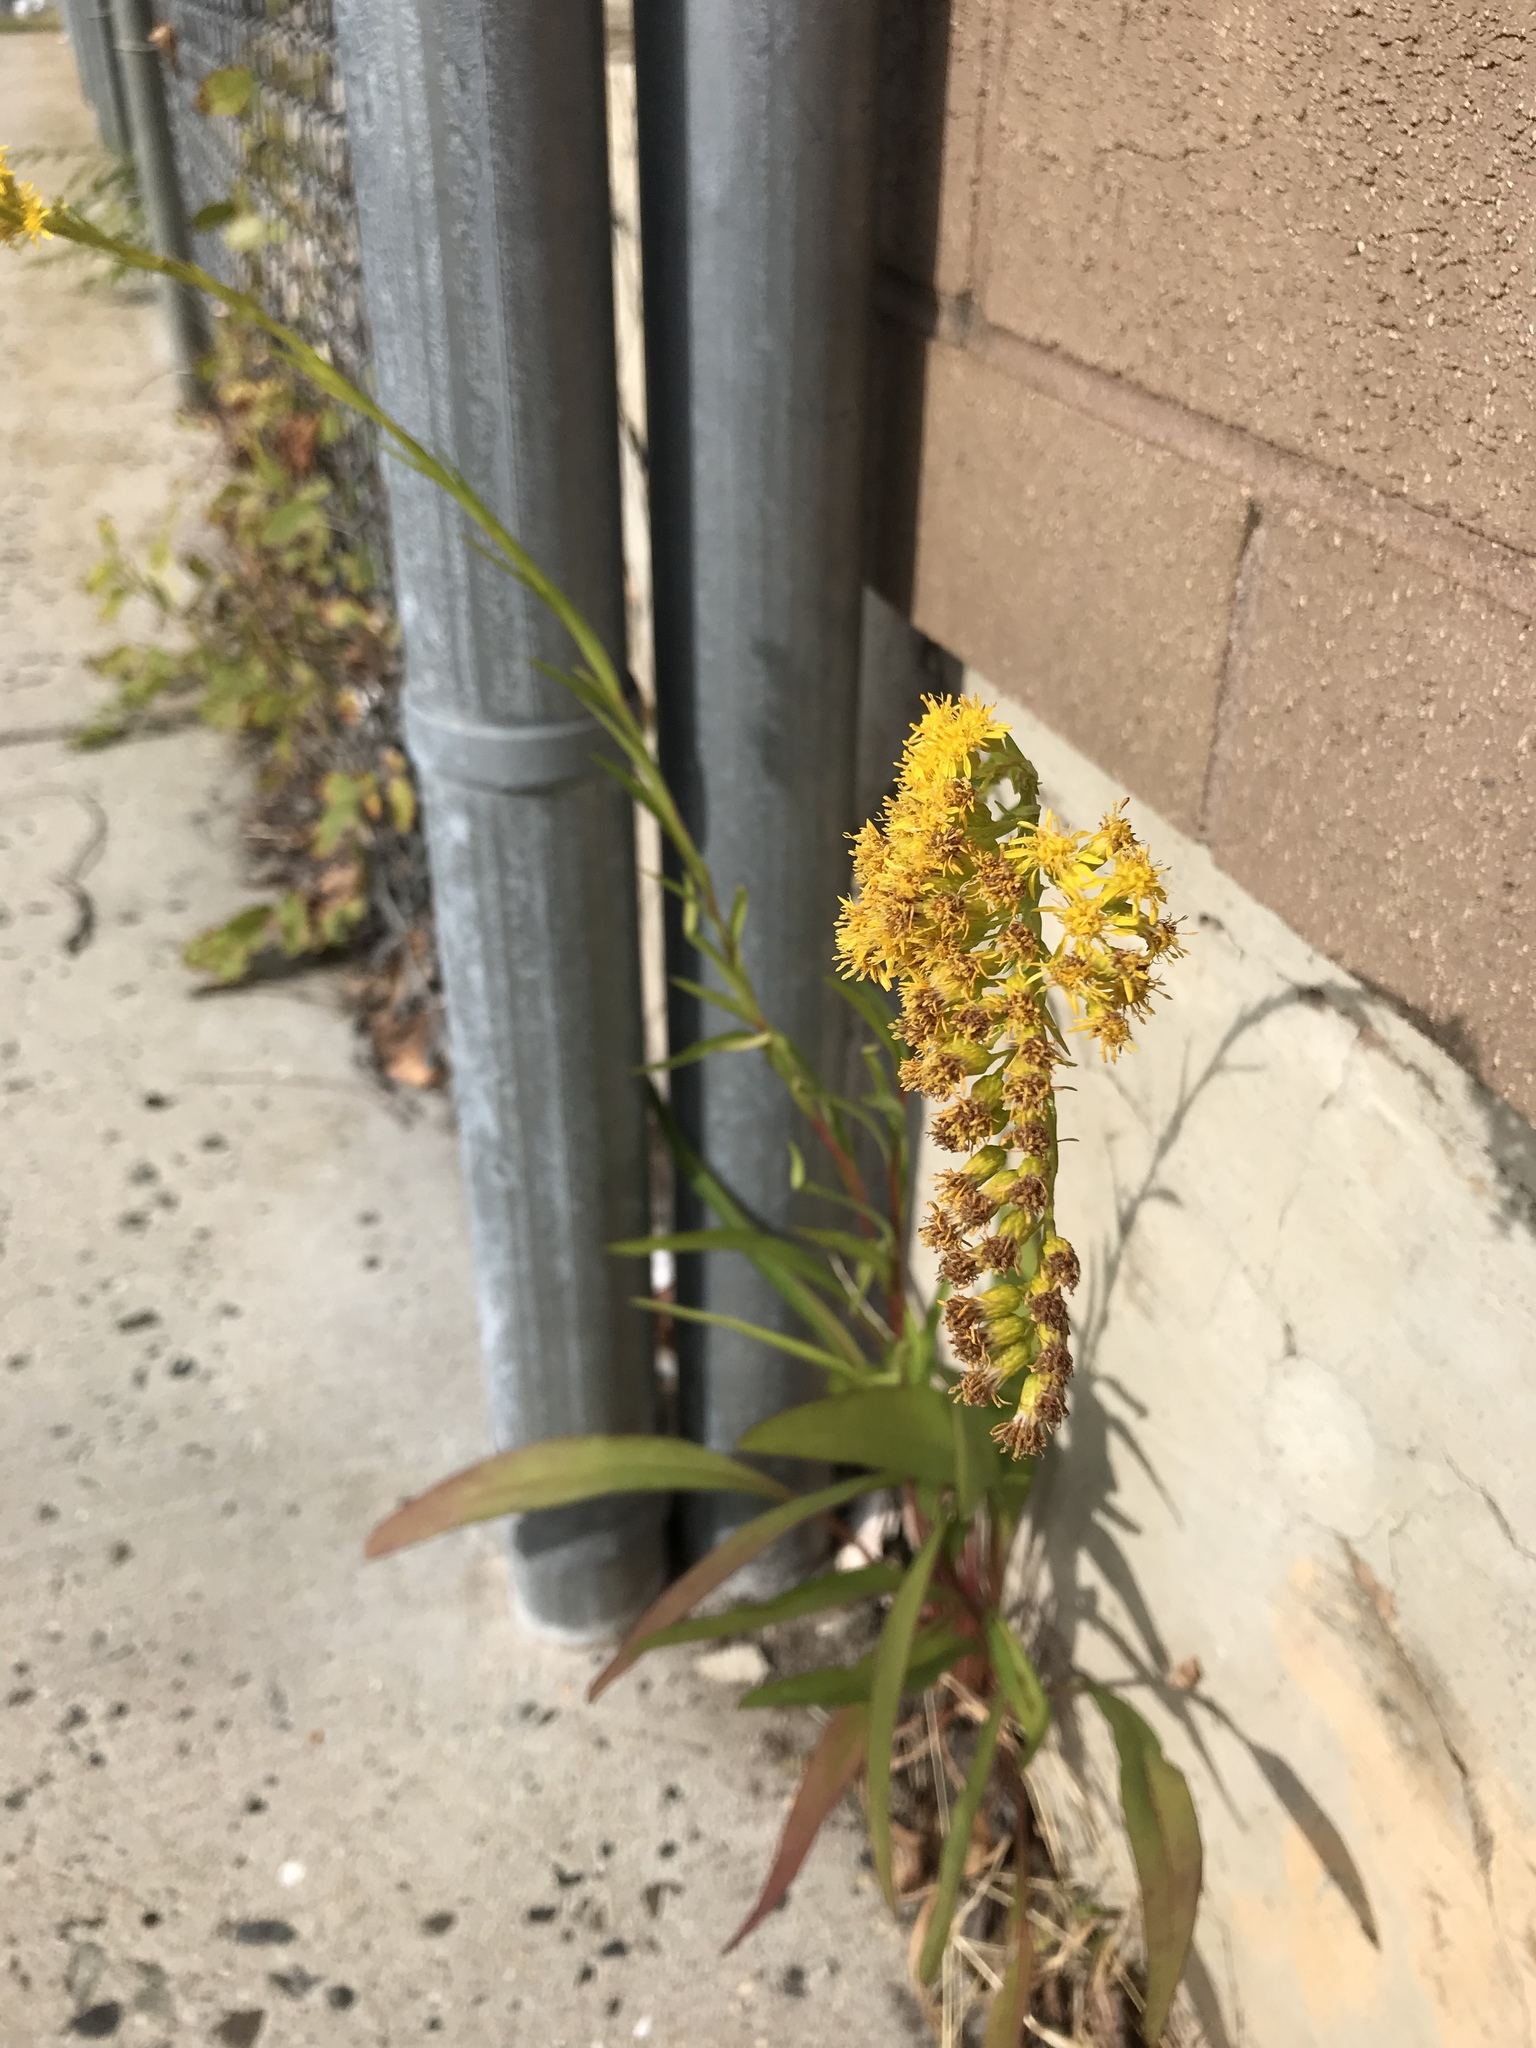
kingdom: Plantae
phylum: Tracheophyta
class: Magnoliopsida
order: Asterales
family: Asteraceae
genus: Solidago
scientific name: Solidago sempervirens
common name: Salt-marsh goldenrod
